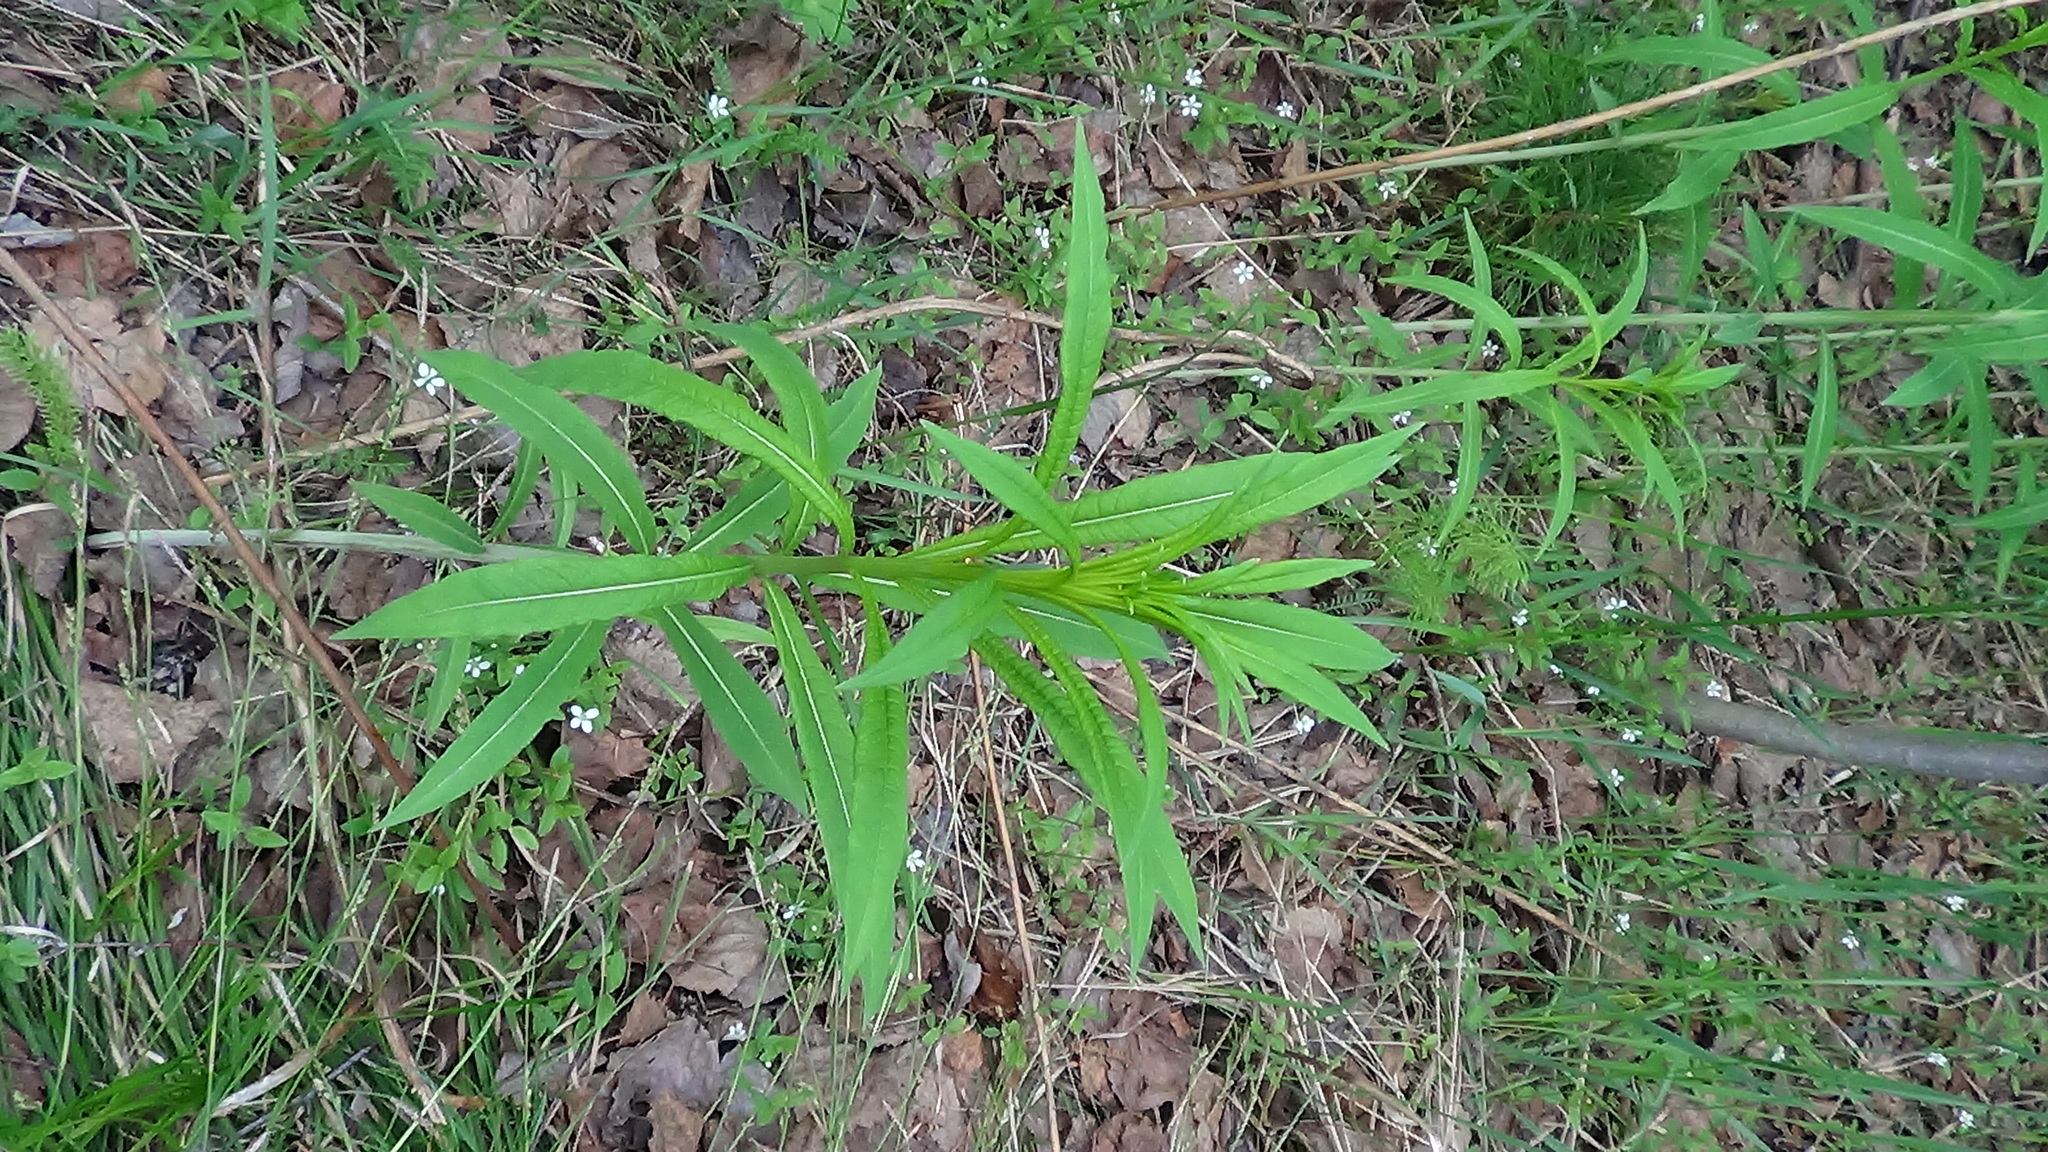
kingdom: Plantae
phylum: Tracheophyta
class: Magnoliopsida
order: Myrtales
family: Onagraceae
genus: Chamaenerion
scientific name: Chamaenerion angustifolium
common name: Fireweed
